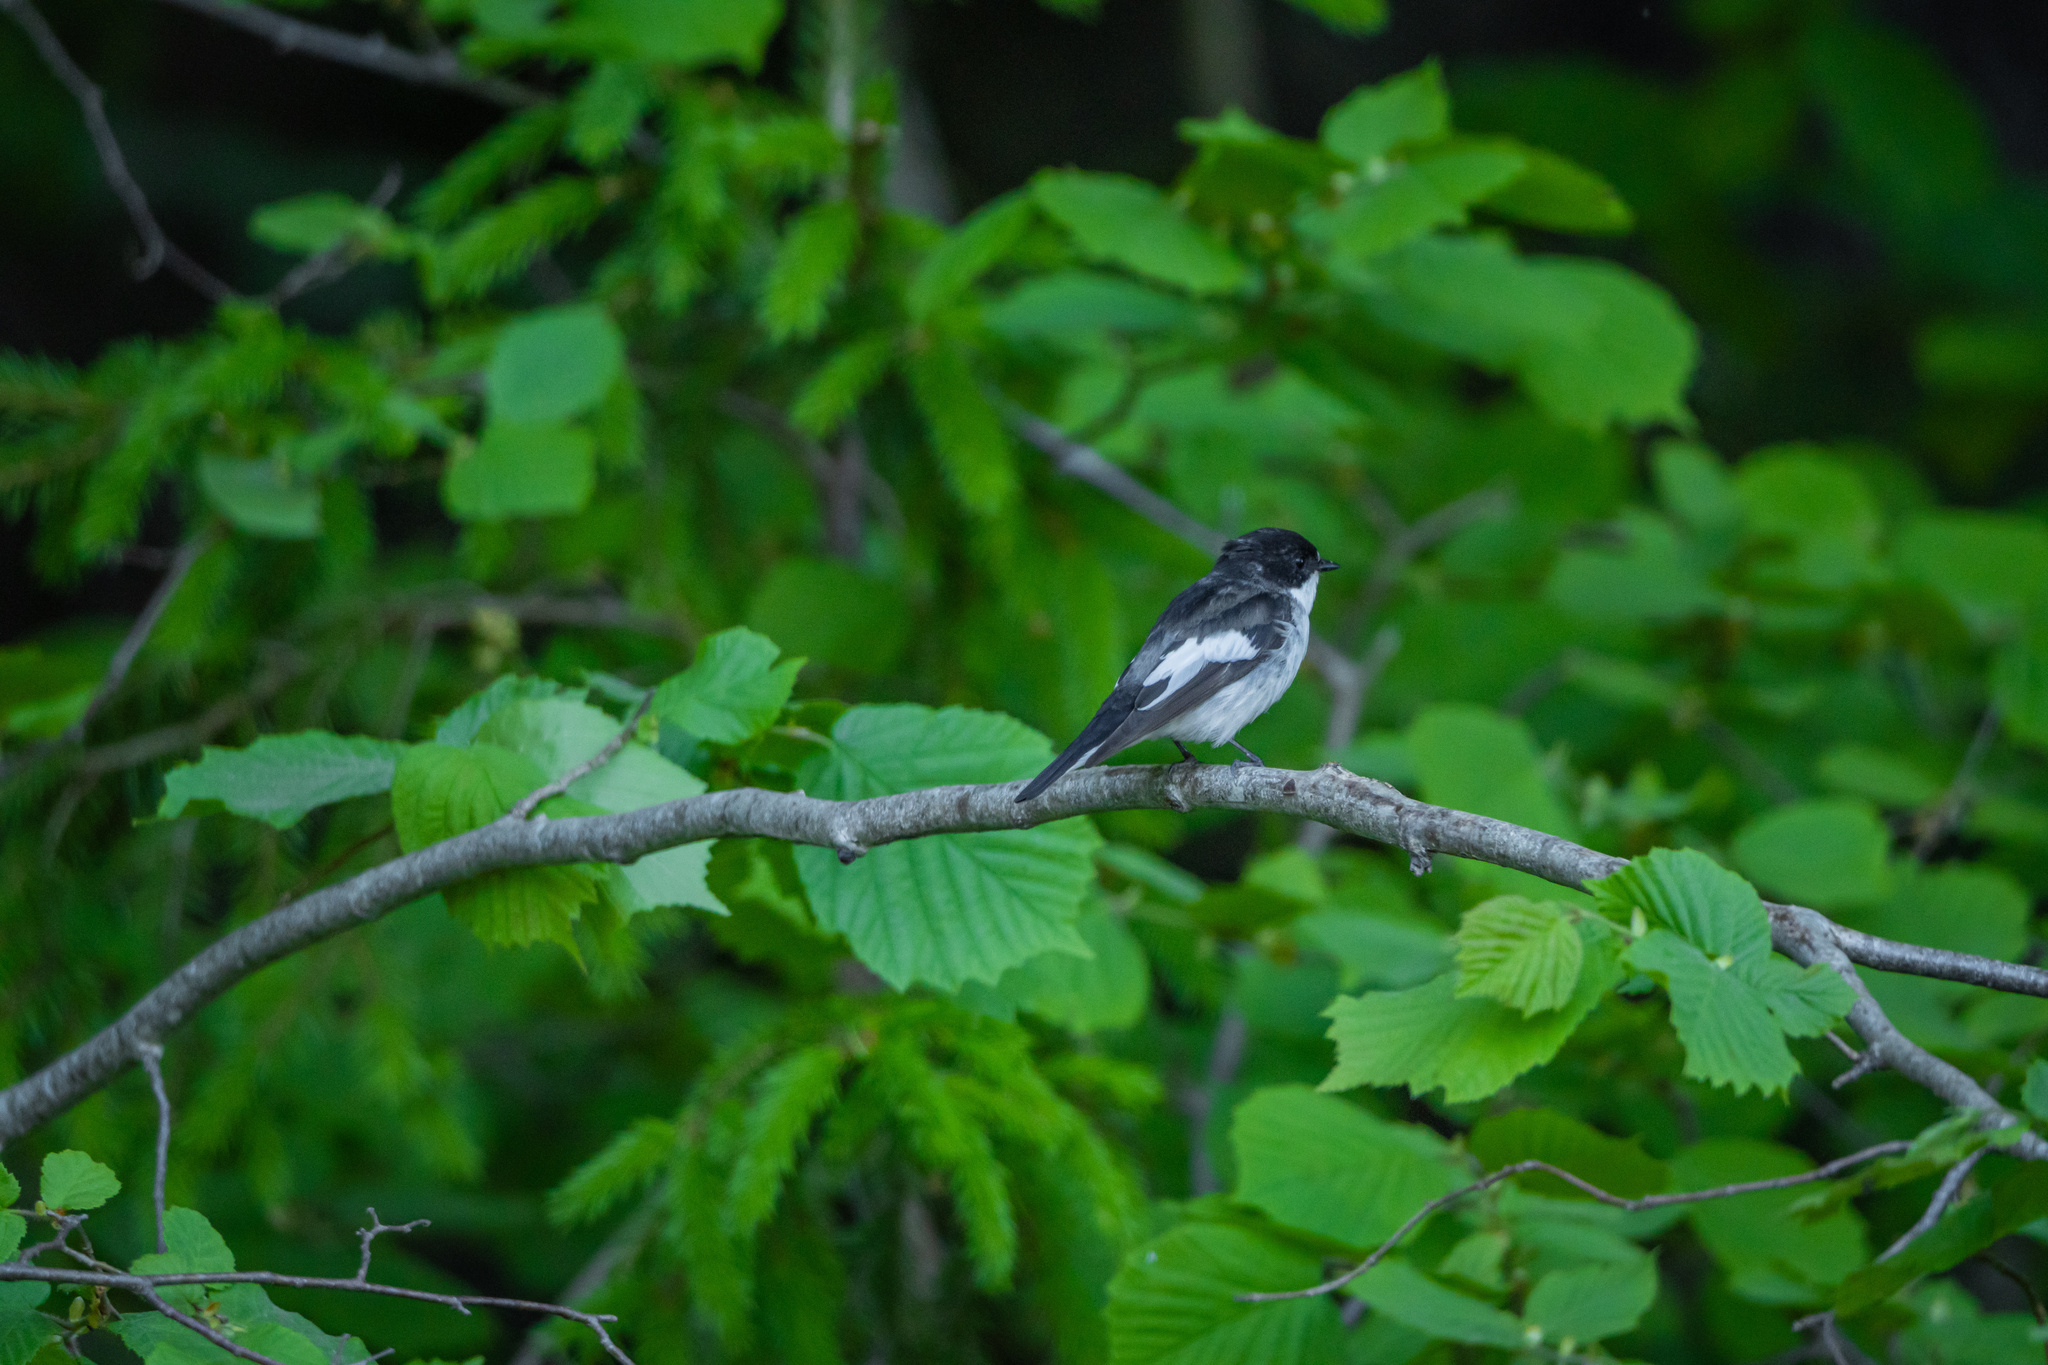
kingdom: Animalia
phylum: Chordata
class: Aves
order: Passeriformes
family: Muscicapidae
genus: Ficedula
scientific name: Ficedula hypoleuca
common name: European pied flycatcher
